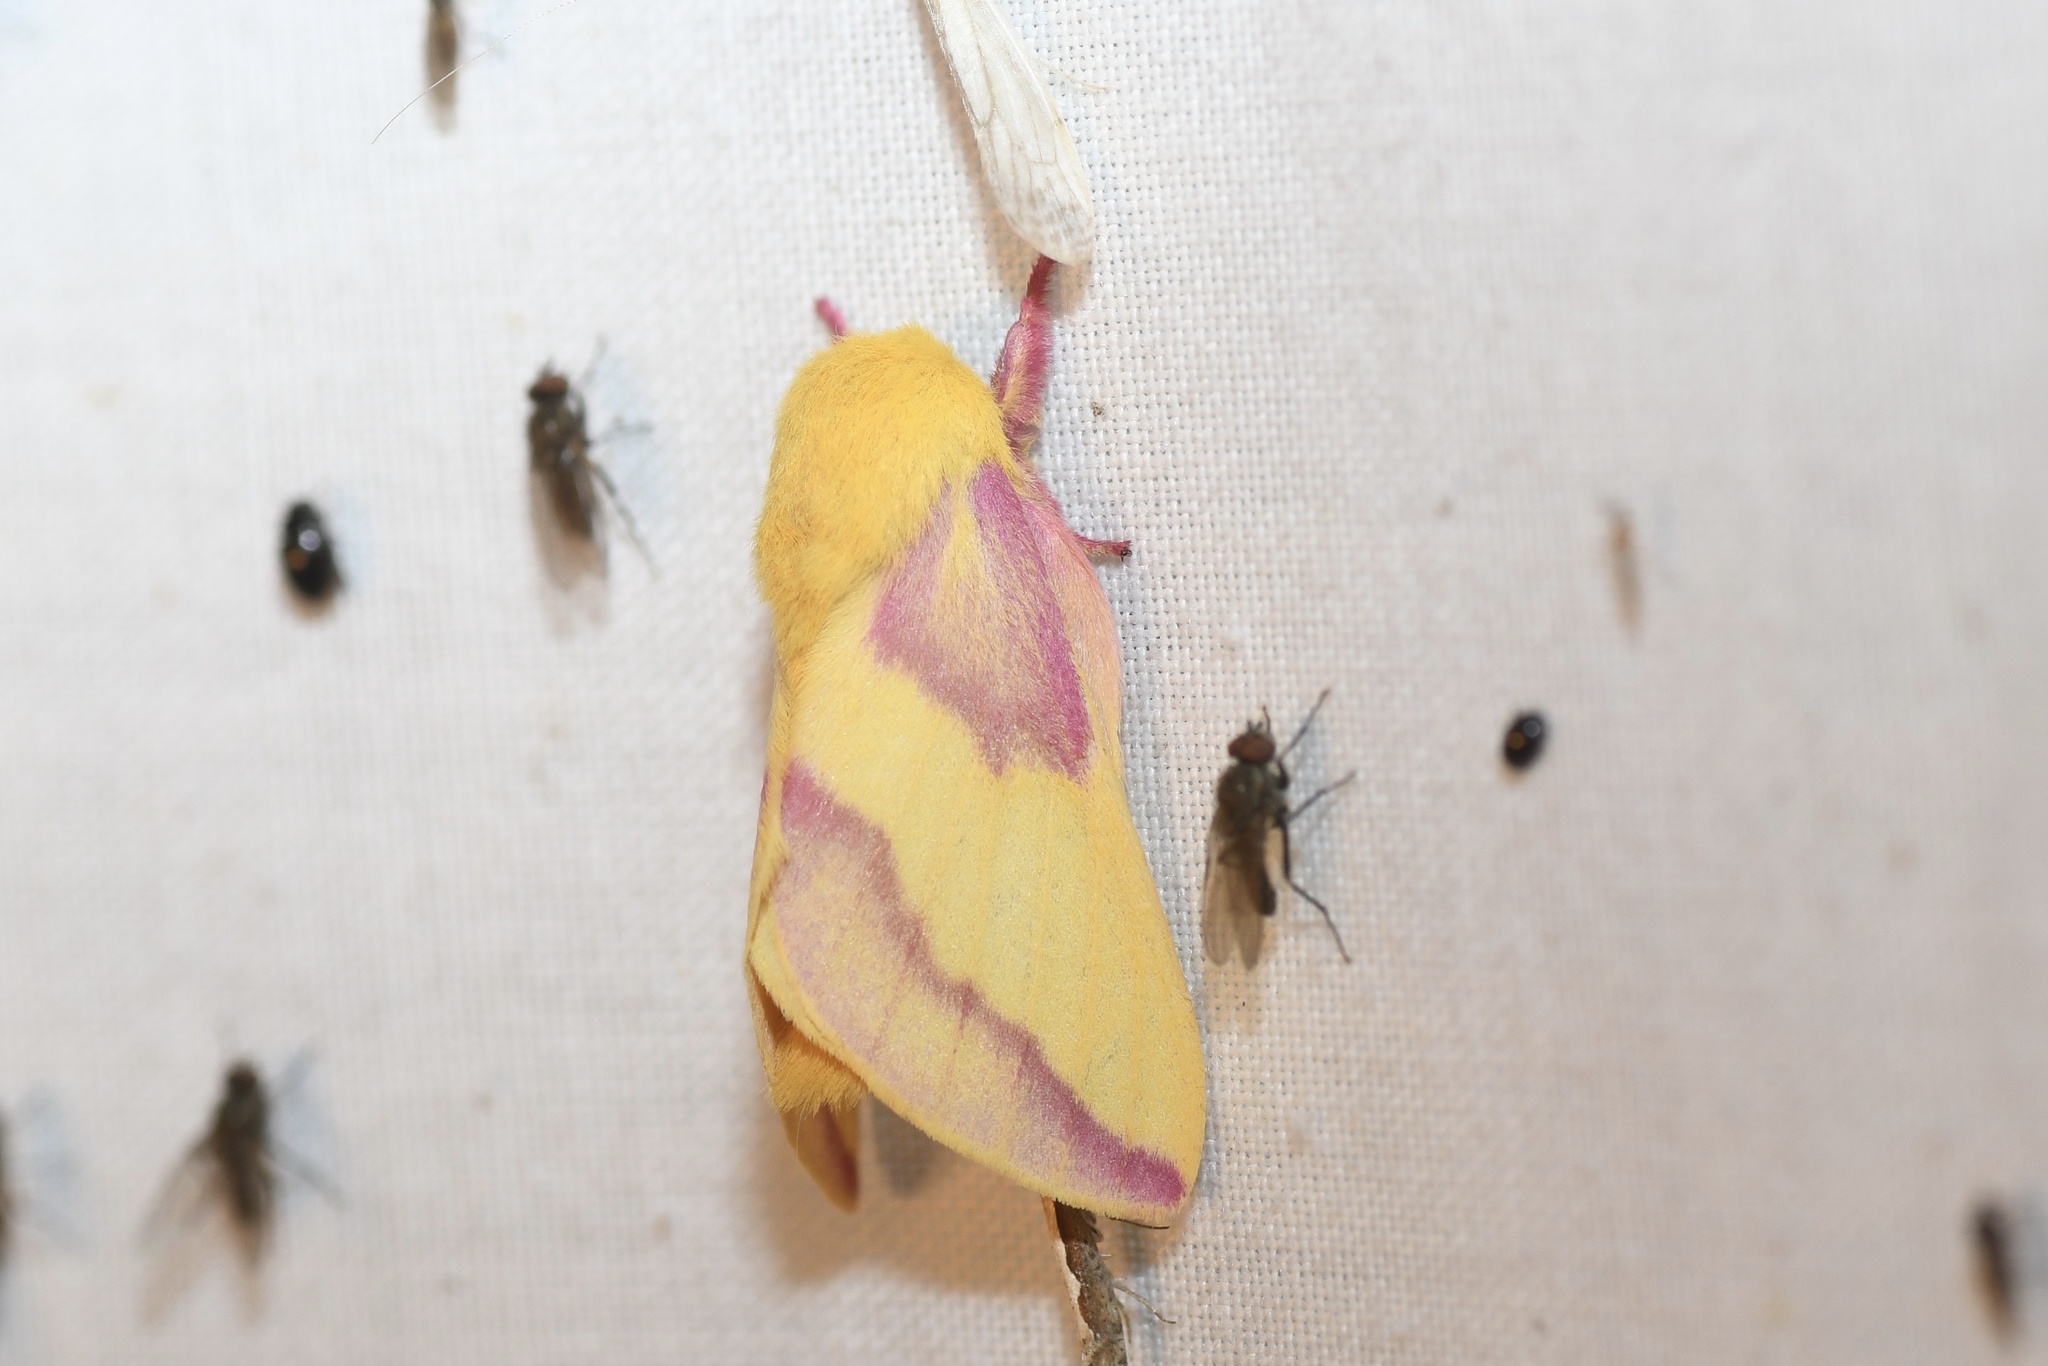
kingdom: Animalia
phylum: Arthropoda
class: Insecta
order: Lepidoptera
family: Saturniidae
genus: Dryocampa
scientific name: Dryocampa rubicunda
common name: Rosy maple moth
